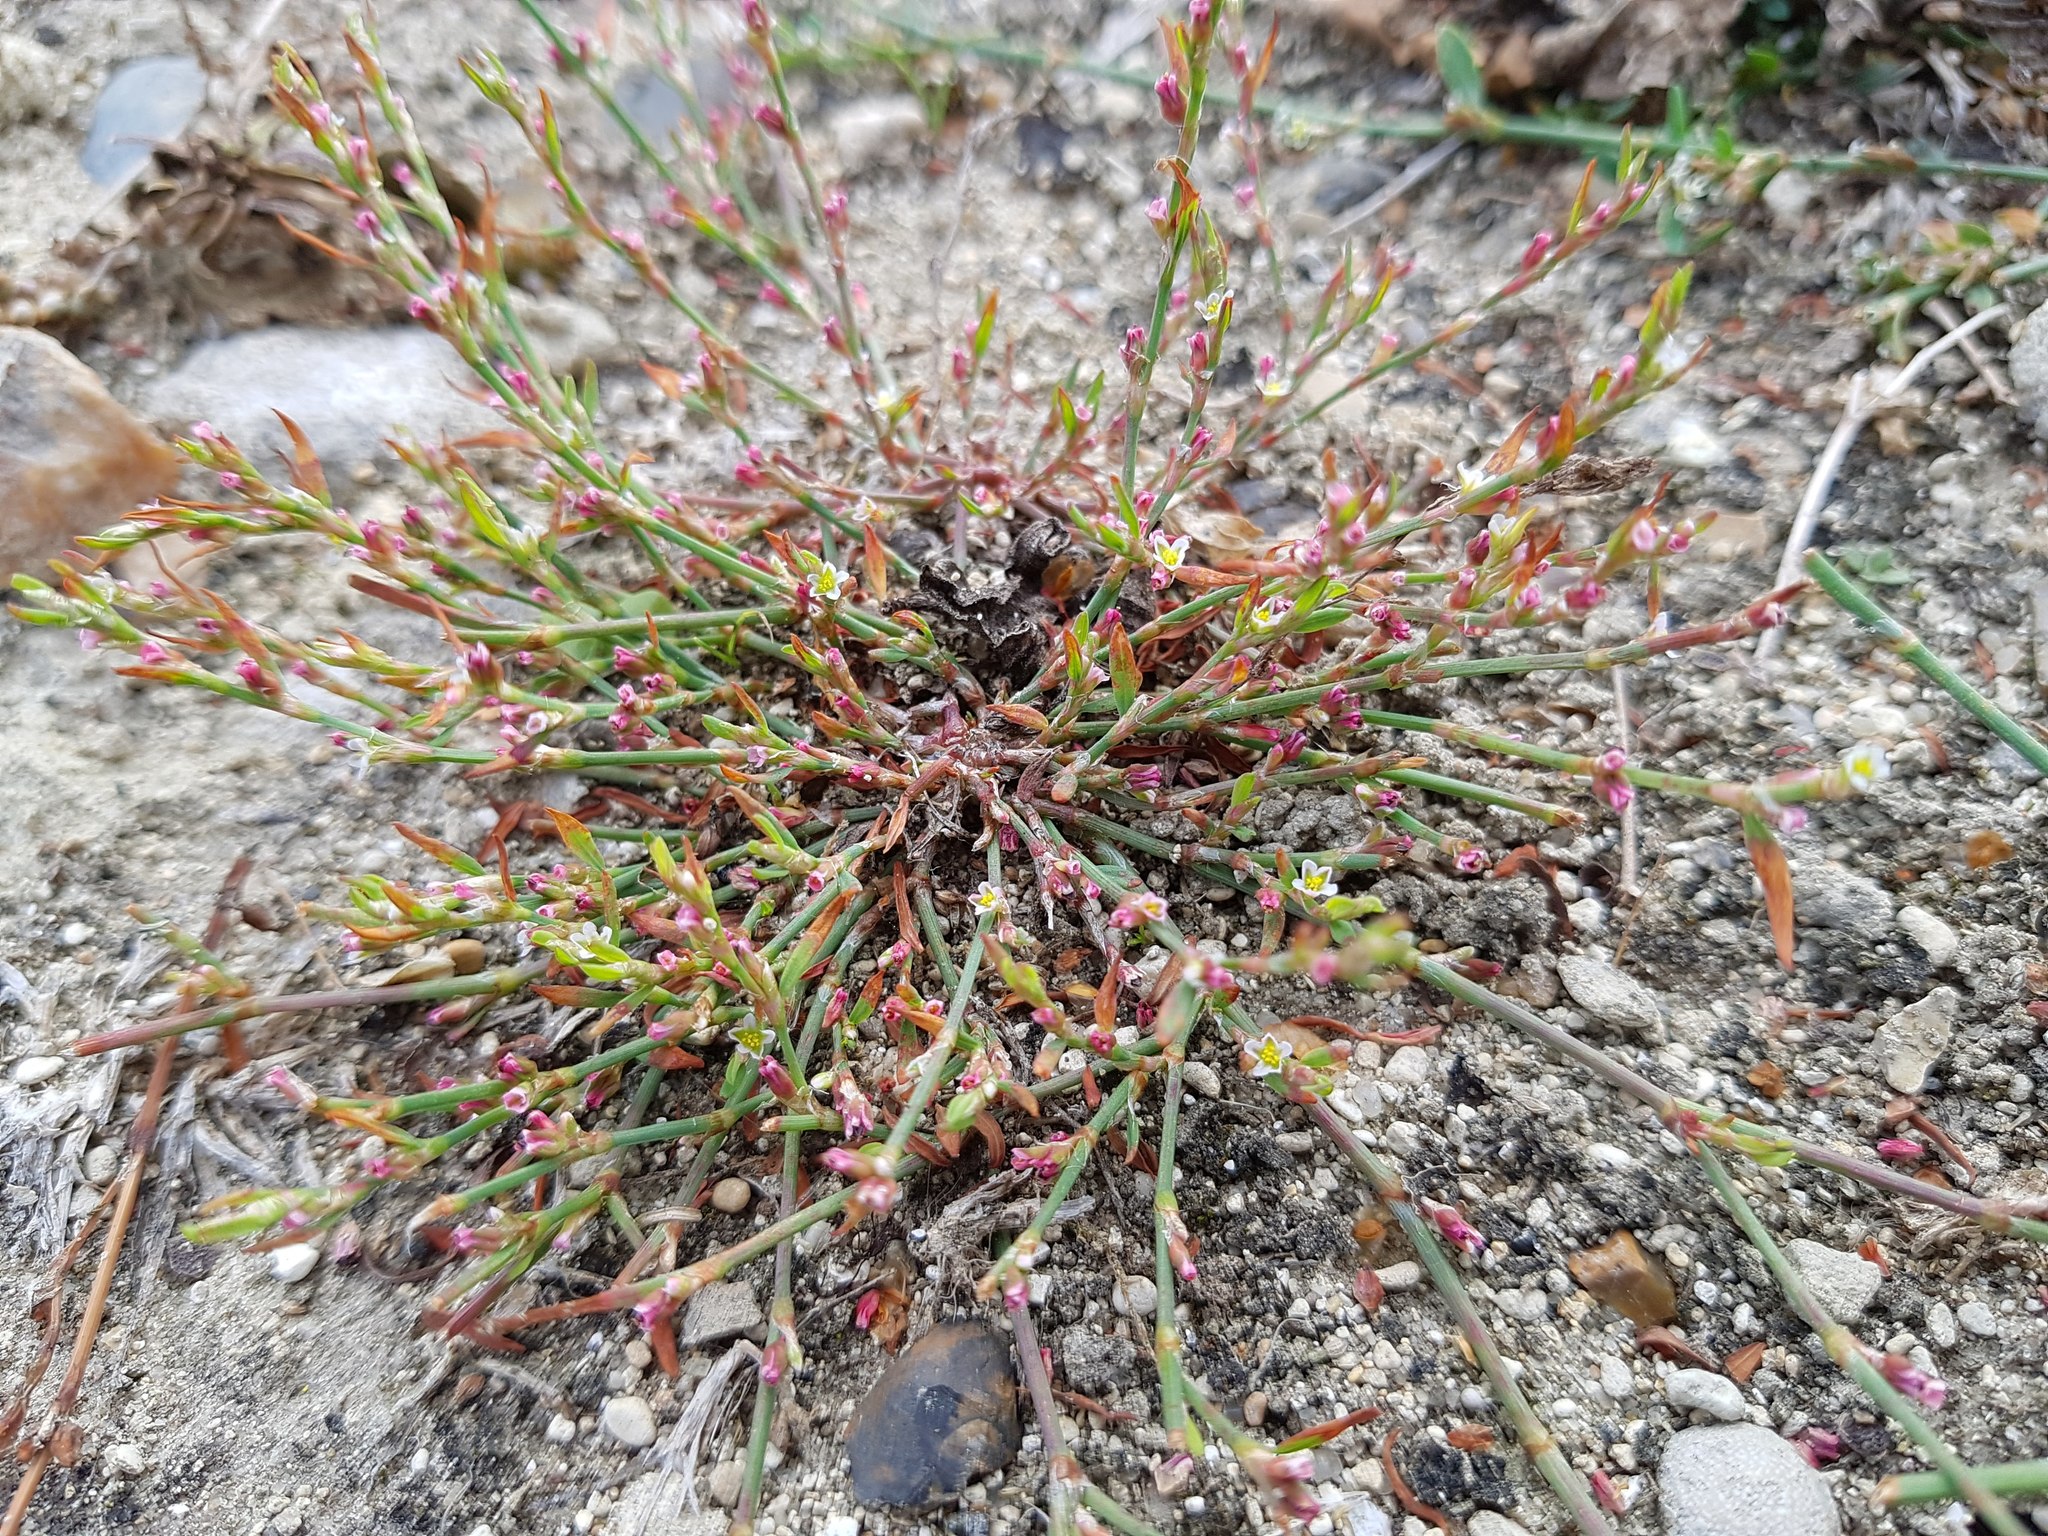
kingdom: Plantae
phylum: Tracheophyta
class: Magnoliopsida
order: Caryophyllales
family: Polygonaceae
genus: Polygonum
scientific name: Polygonum aviculare
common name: Prostrate knotweed
